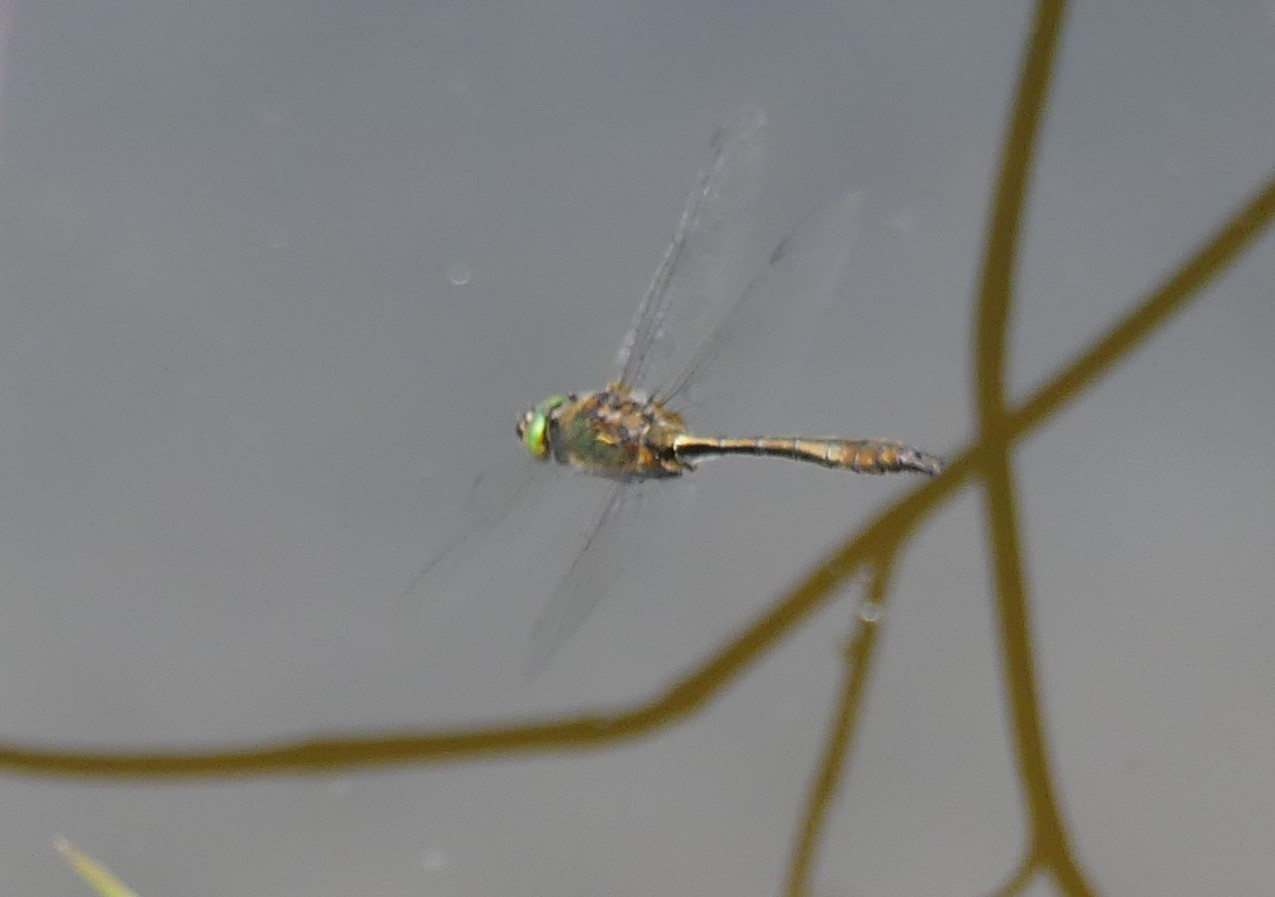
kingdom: Animalia
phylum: Arthropoda
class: Insecta
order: Odonata
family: Corduliidae
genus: Cordulia
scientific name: Cordulia aenea
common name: Downy emerald
